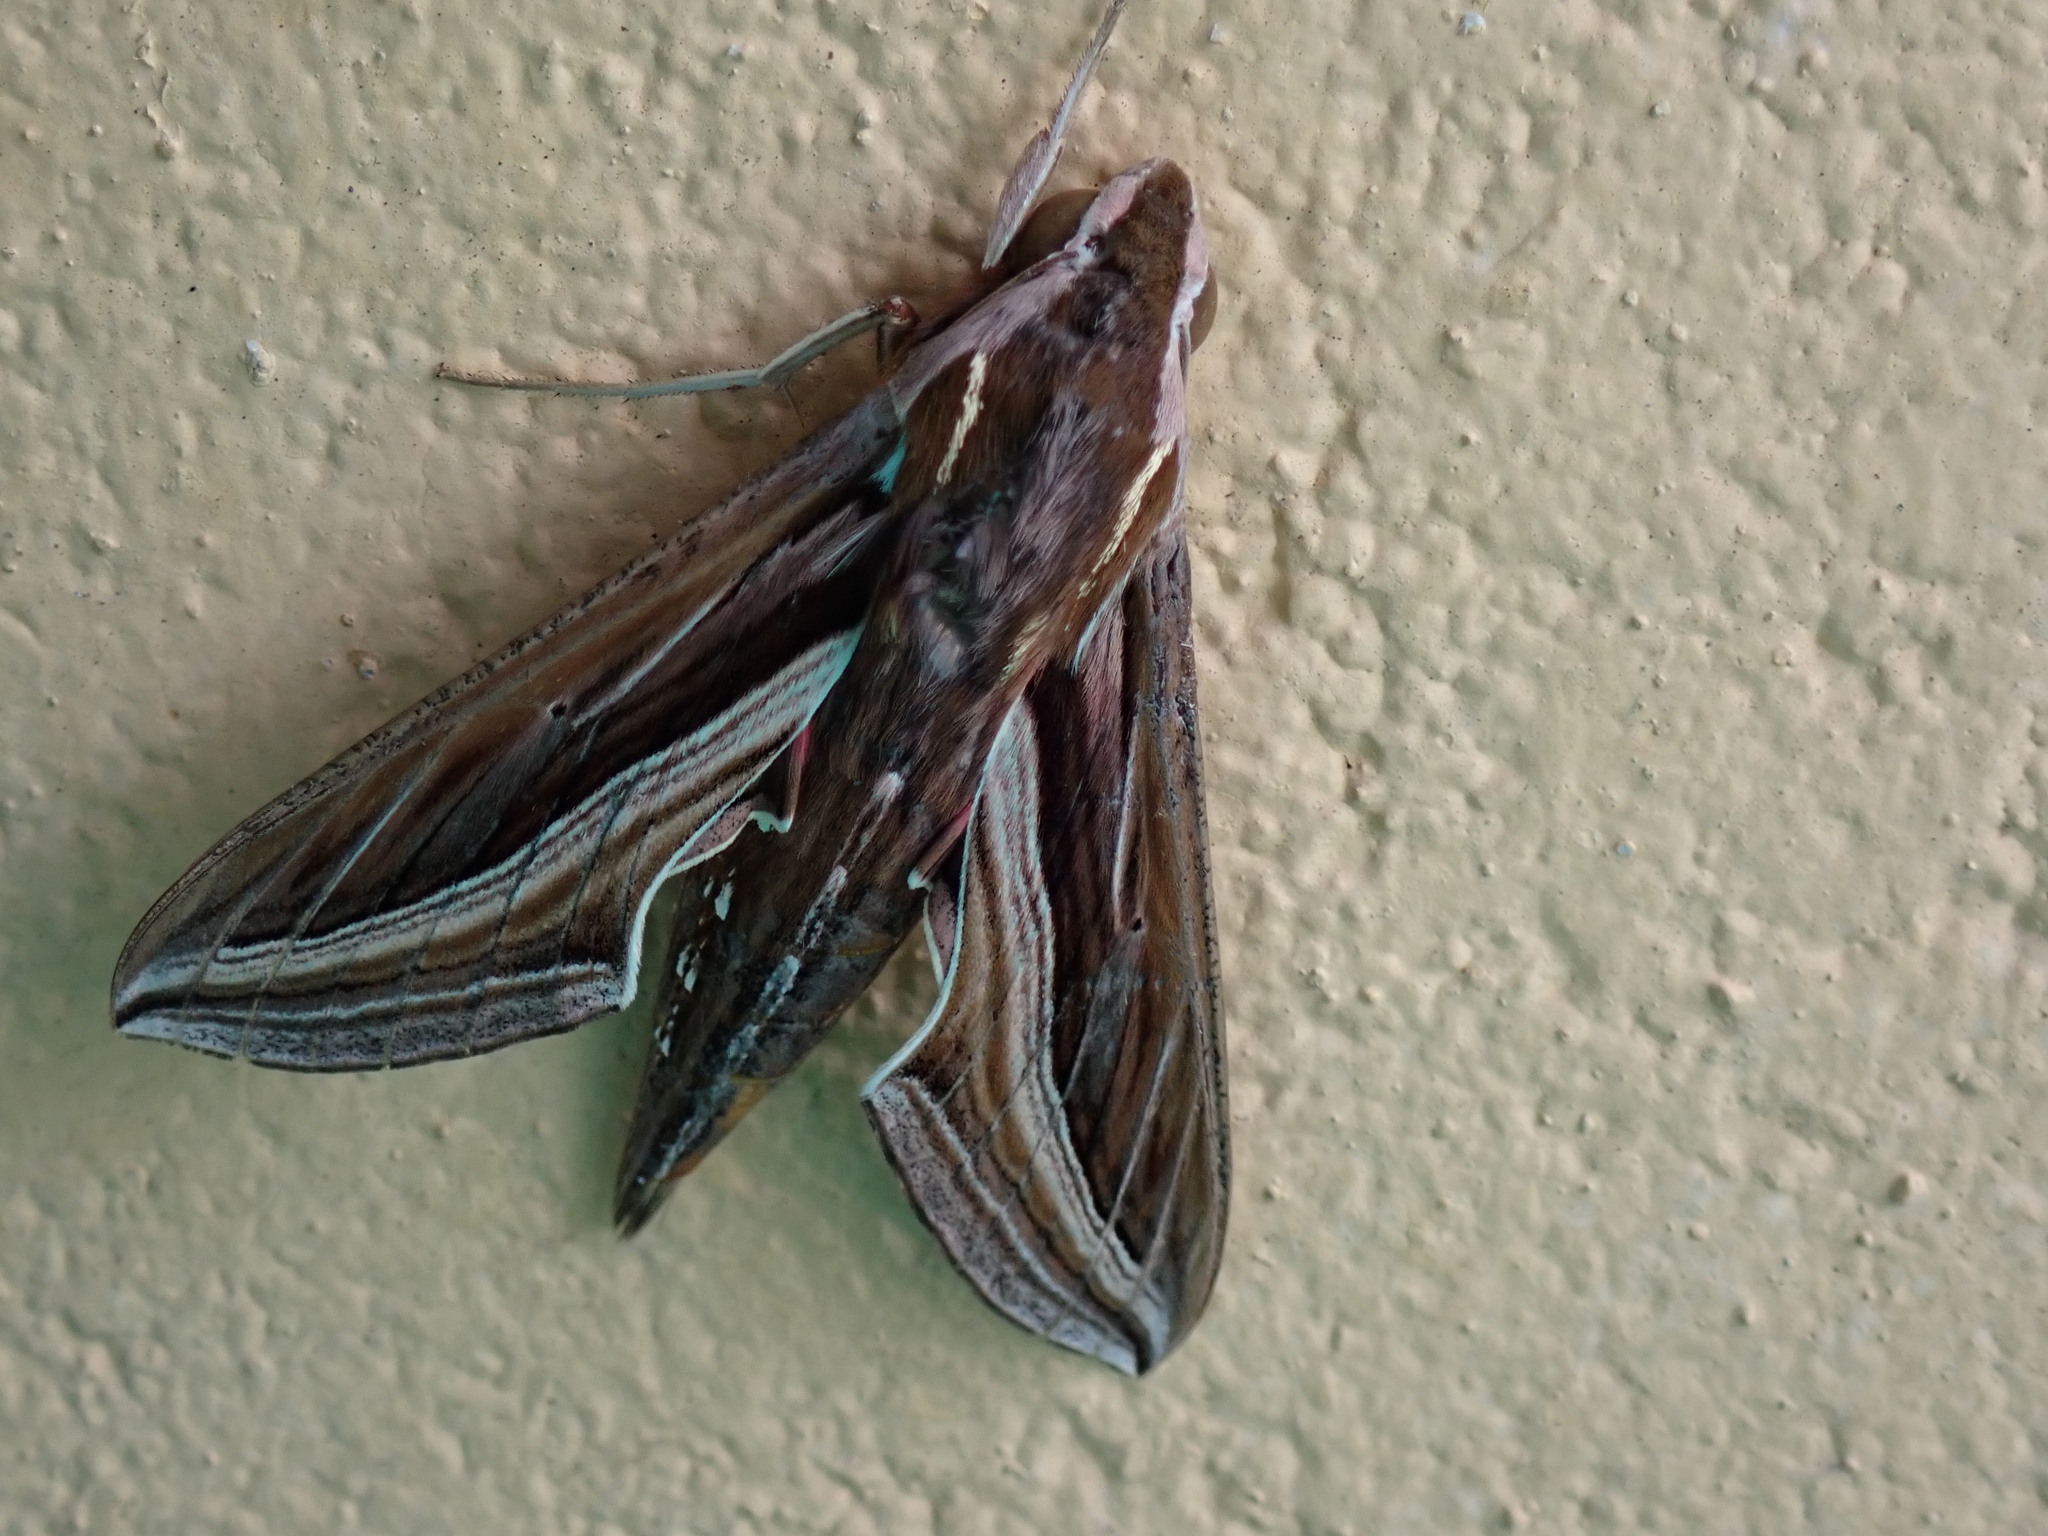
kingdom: Animalia
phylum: Arthropoda
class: Insecta
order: Lepidoptera
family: Sphingidae
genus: Hippotion
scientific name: Hippotion celerio
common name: Silver-striped hawk-moth
